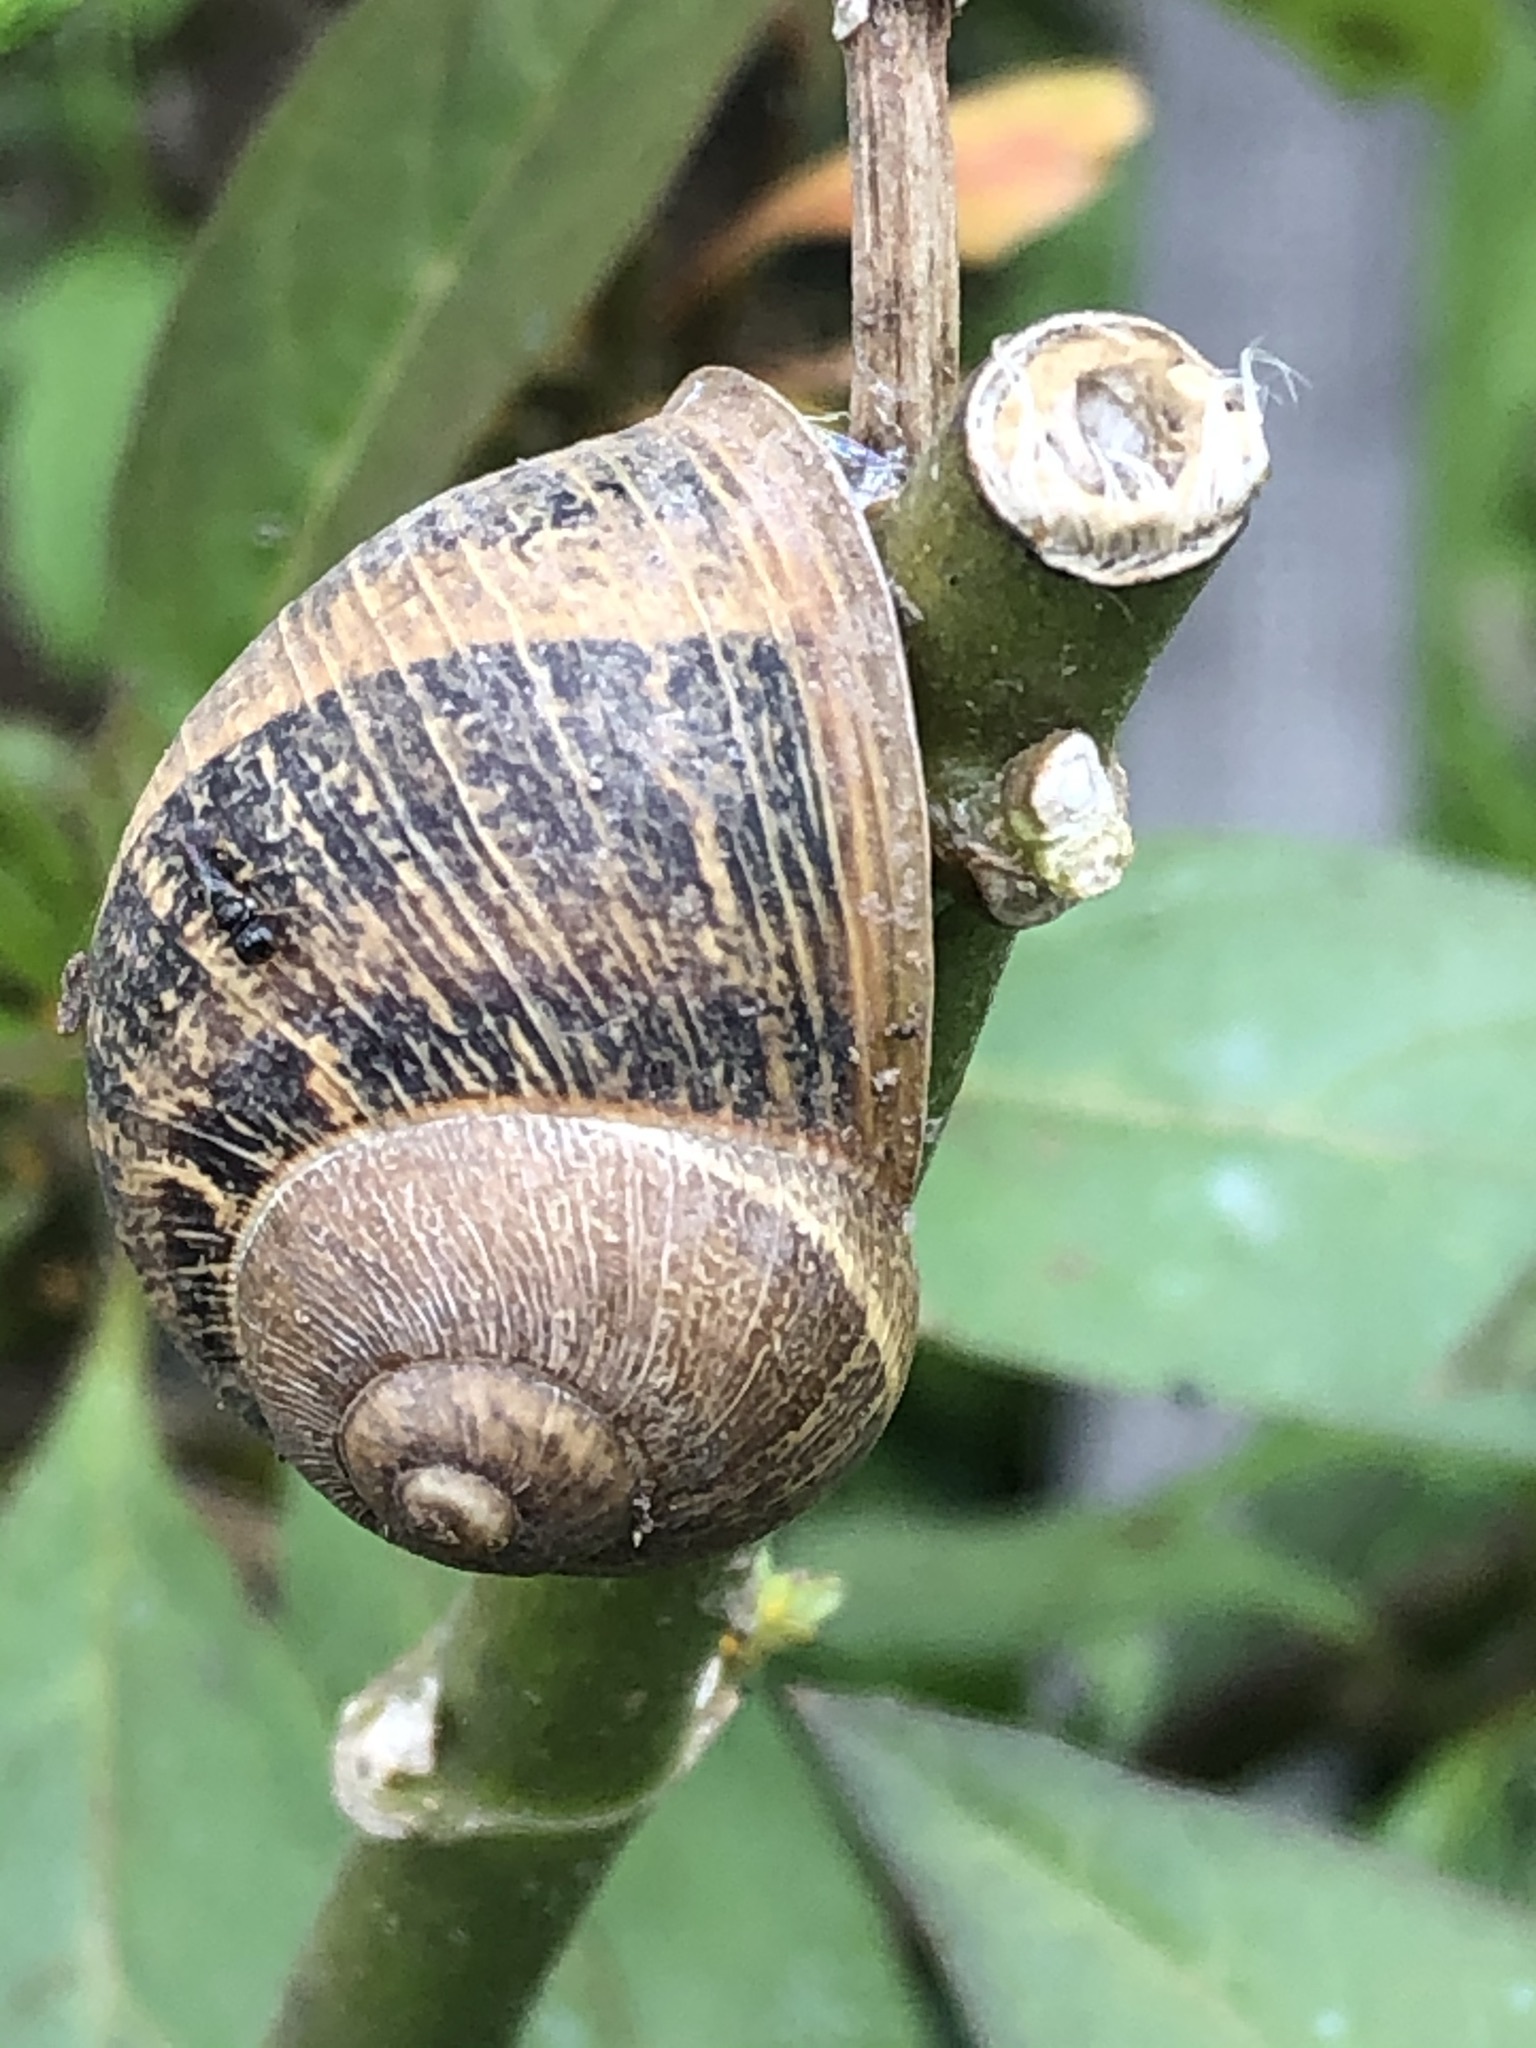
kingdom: Animalia
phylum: Mollusca
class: Gastropoda
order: Stylommatophora
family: Helicidae
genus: Cornu
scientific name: Cornu aspersum
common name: Brown garden snail
